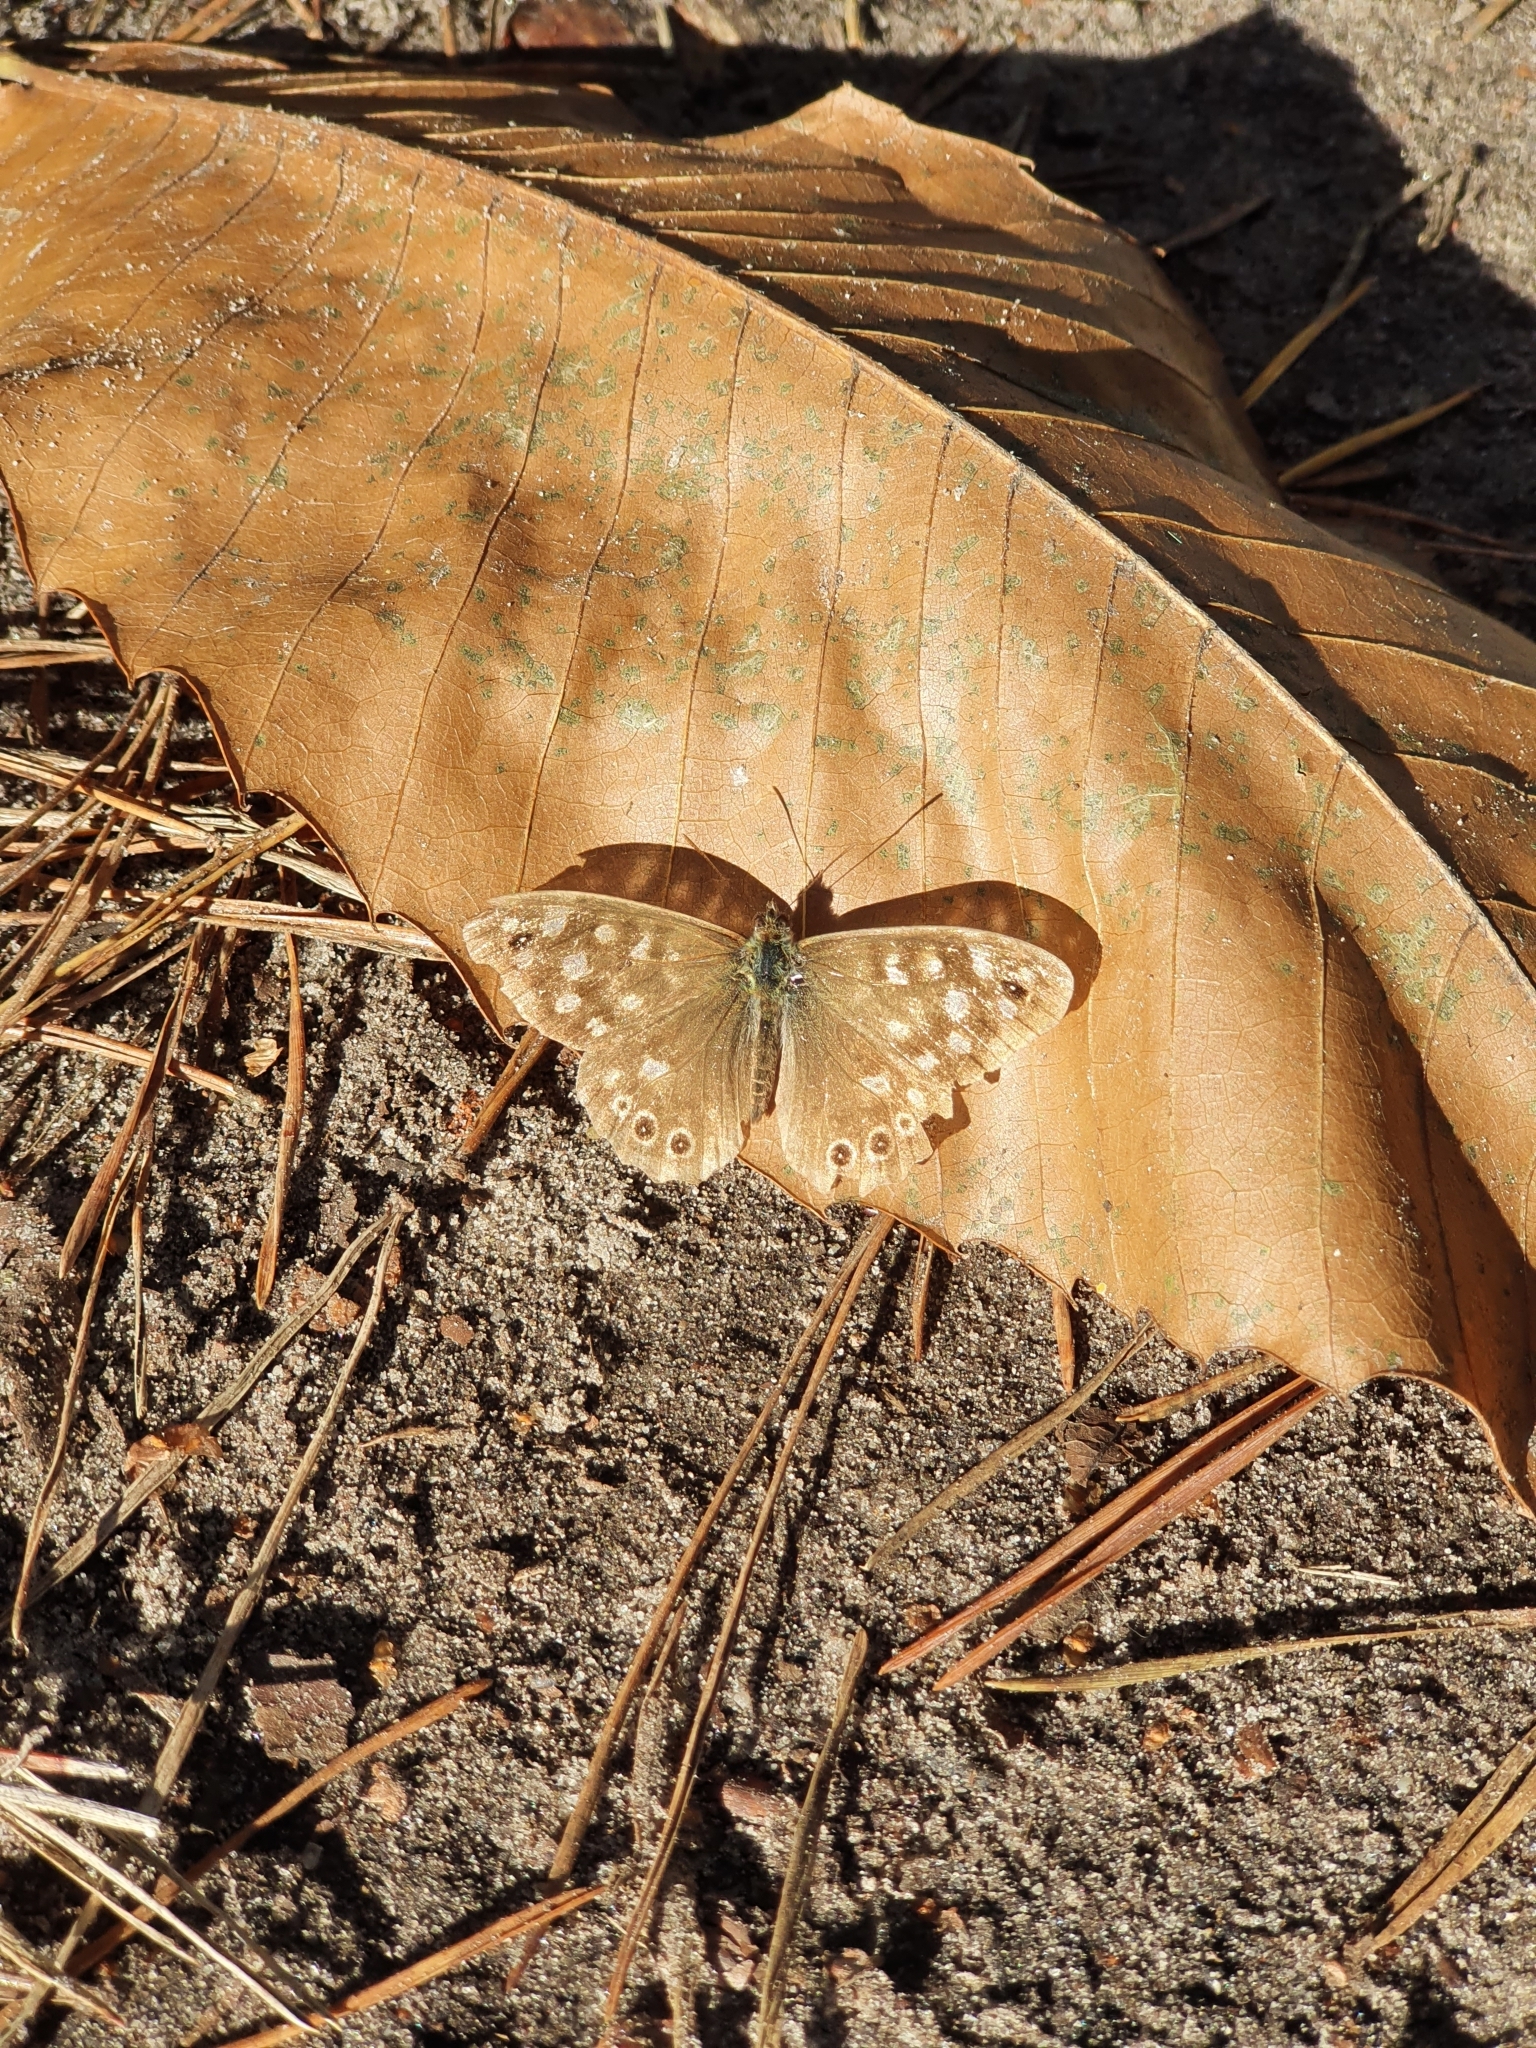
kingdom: Animalia
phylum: Arthropoda
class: Insecta
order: Lepidoptera
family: Nymphalidae
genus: Pararge
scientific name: Pararge aegeria
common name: Speckled wood
